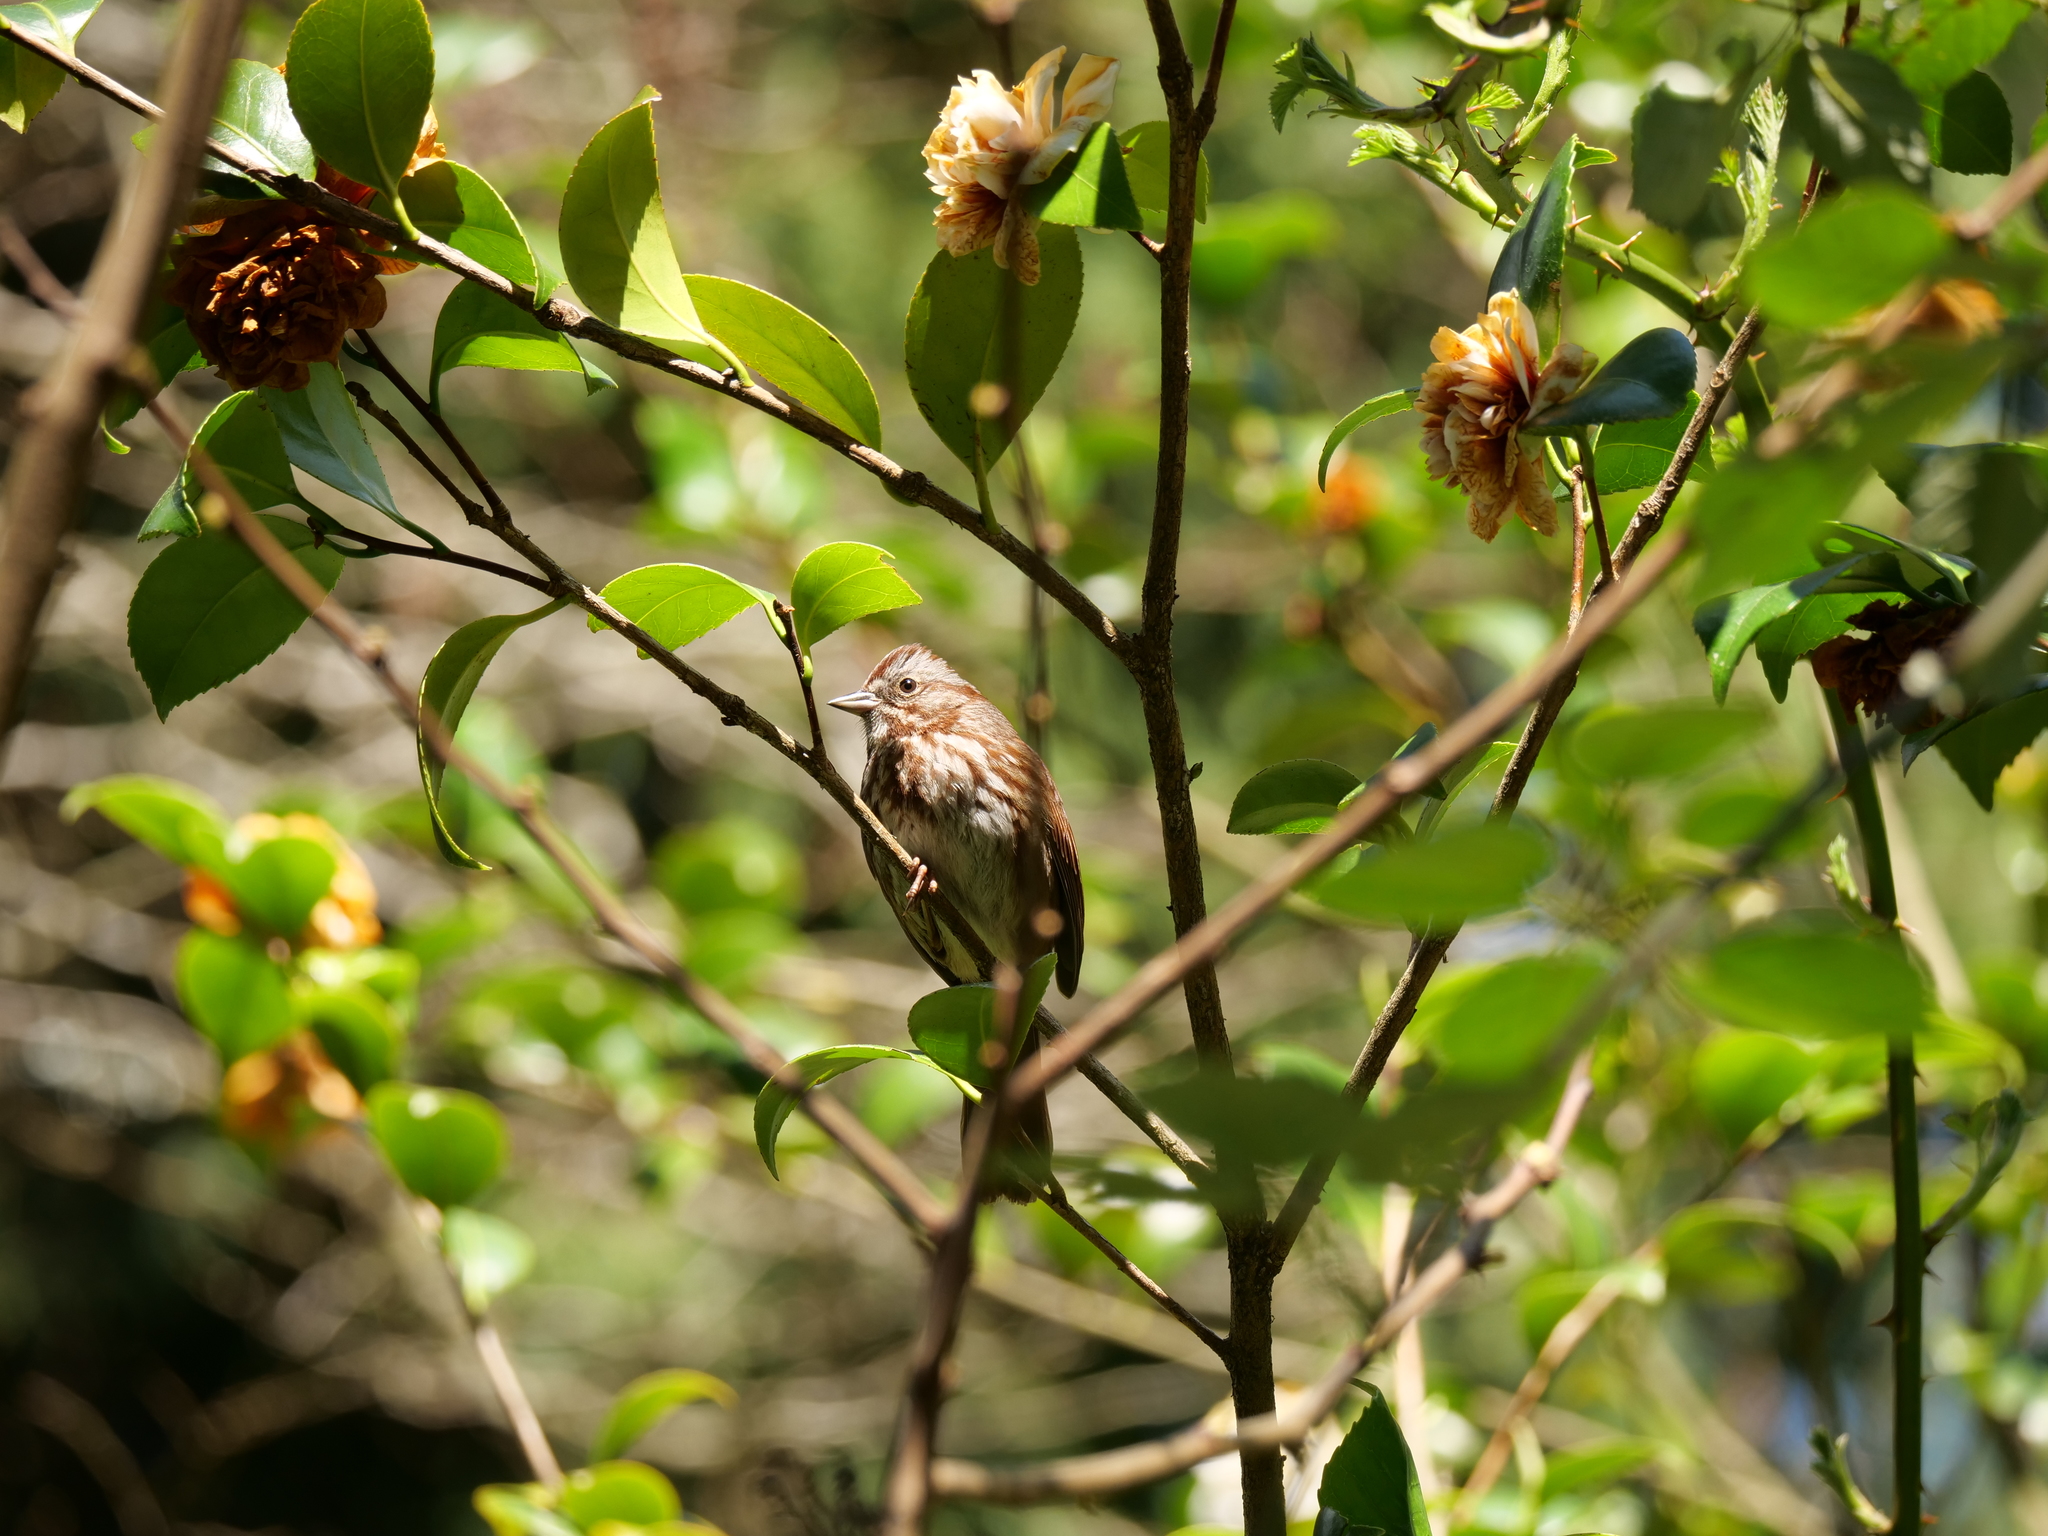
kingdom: Animalia
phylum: Chordata
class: Aves
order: Passeriformes
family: Passerellidae
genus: Melospiza
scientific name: Melospiza melodia
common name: Song sparrow
